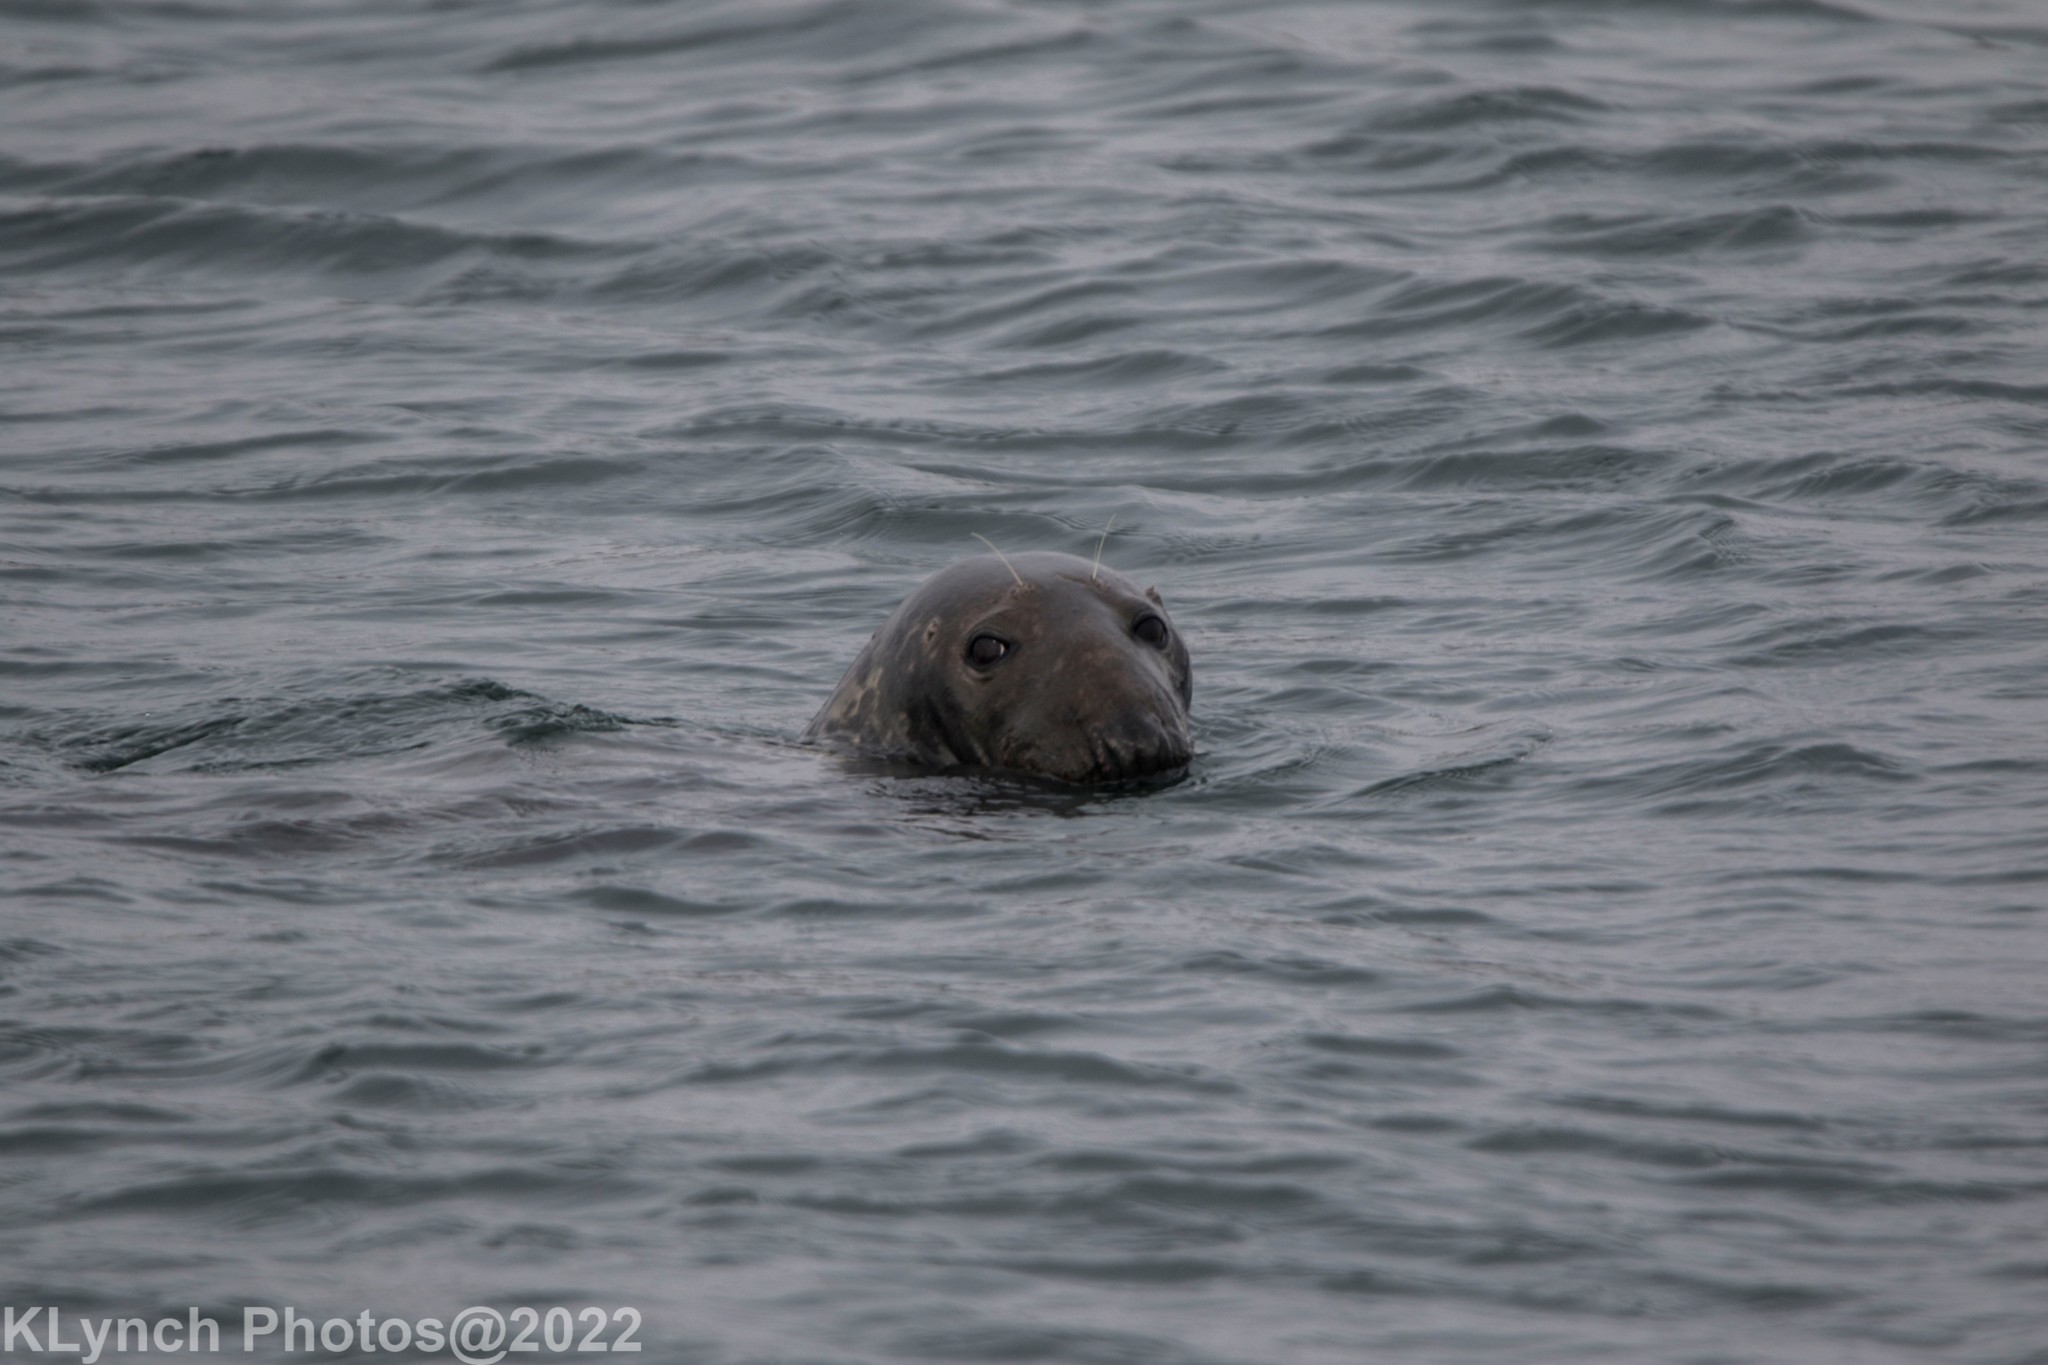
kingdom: Animalia
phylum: Chordata
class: Mammalia
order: Carnivora
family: Phocidae
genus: Halichoerus
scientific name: Halichoerus grypus
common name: Grey seal
